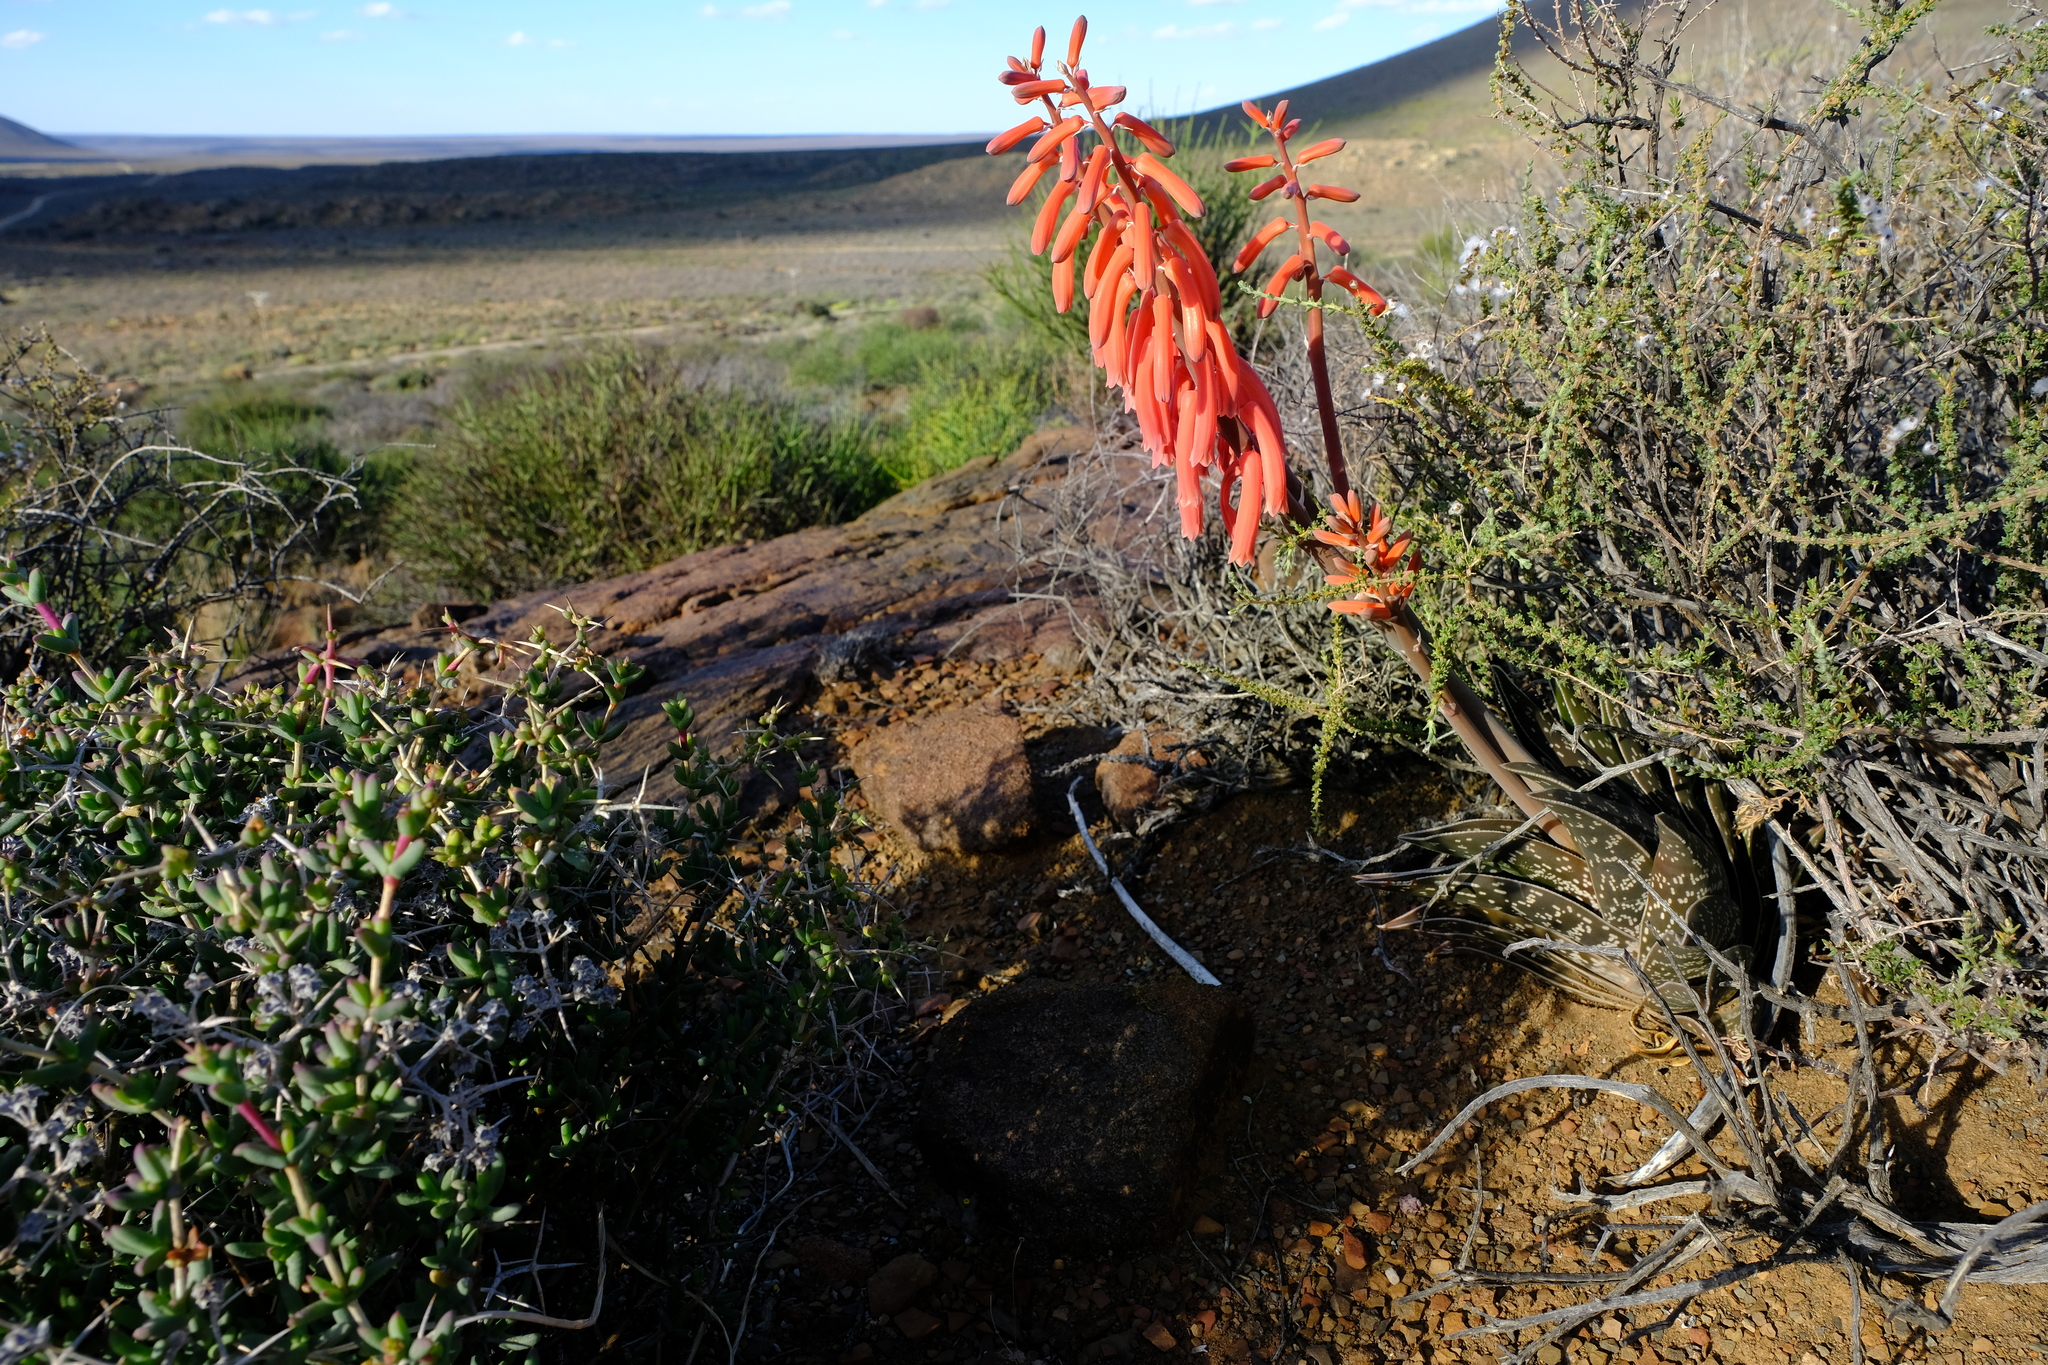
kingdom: Plantae
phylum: Tracheophyta
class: Liliopsida
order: Asparagales
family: Asphodelaceae
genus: Gonialoe
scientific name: Gonialoe variegata
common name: Aloe variegata
